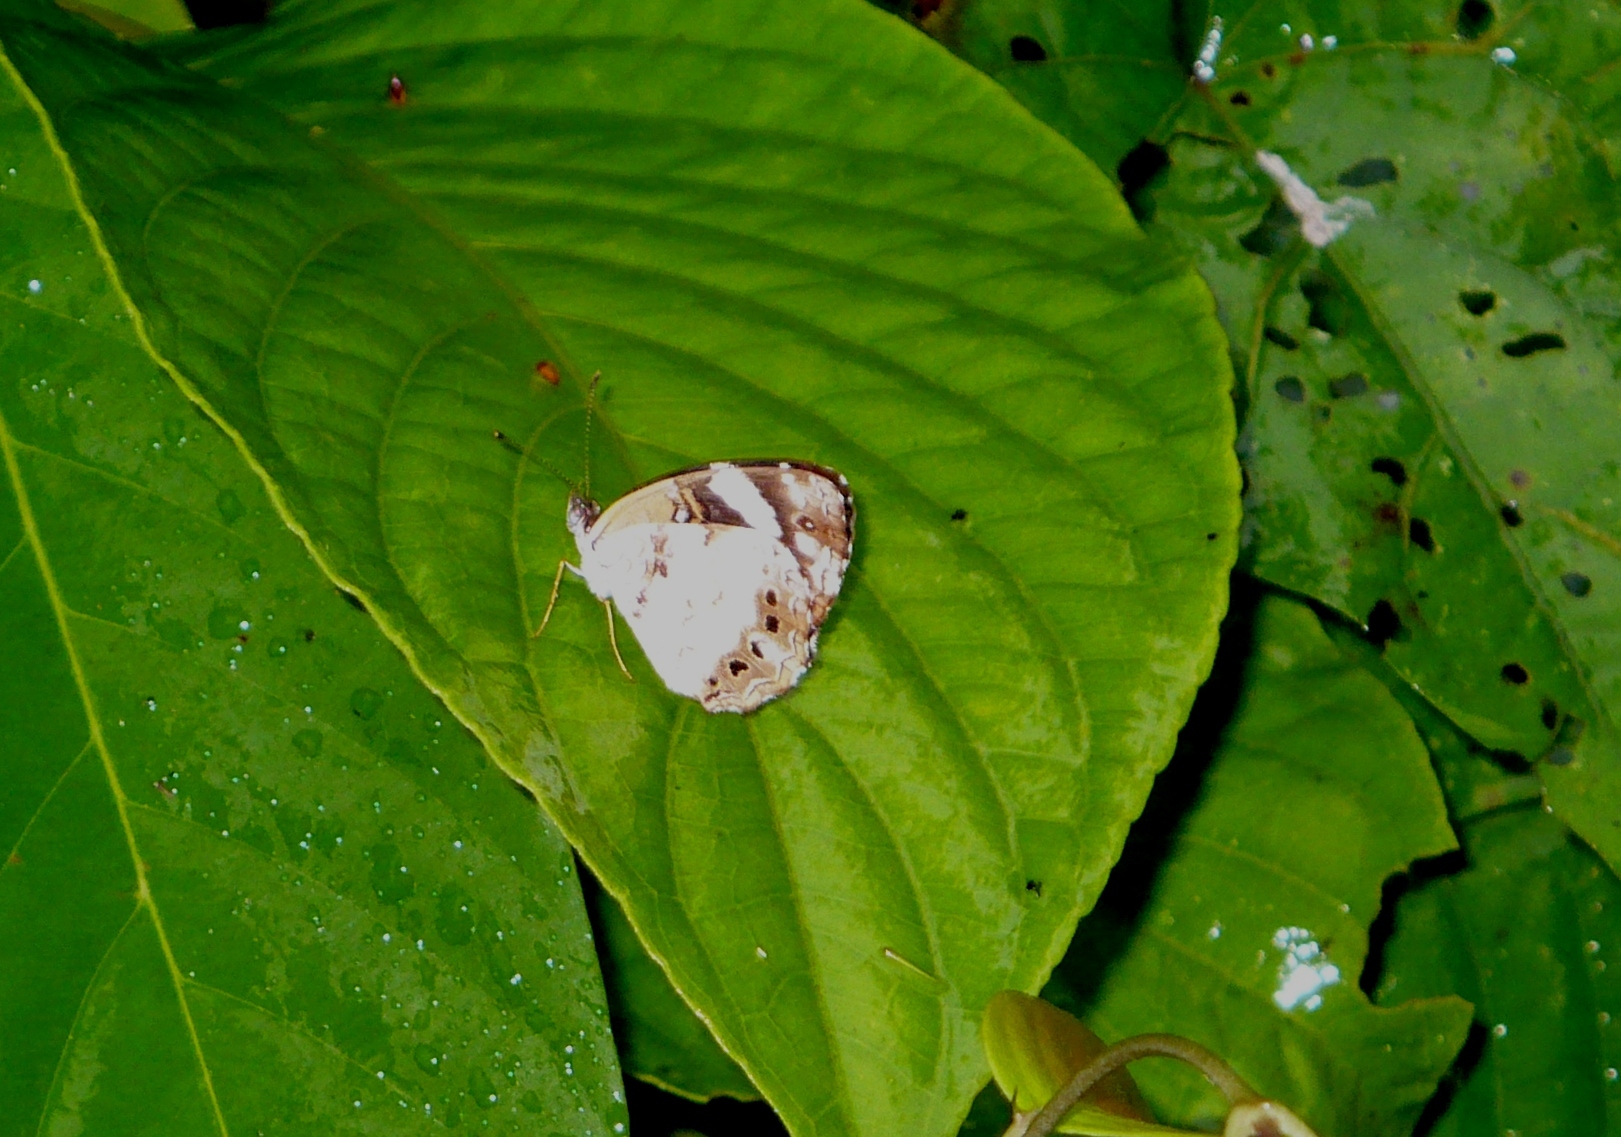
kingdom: Animalia
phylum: Arthropoda
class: Insecta
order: Lepidoptera
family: Nymphalidae
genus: Janatella
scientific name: Janatella leucodesma
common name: Whitened crescent
